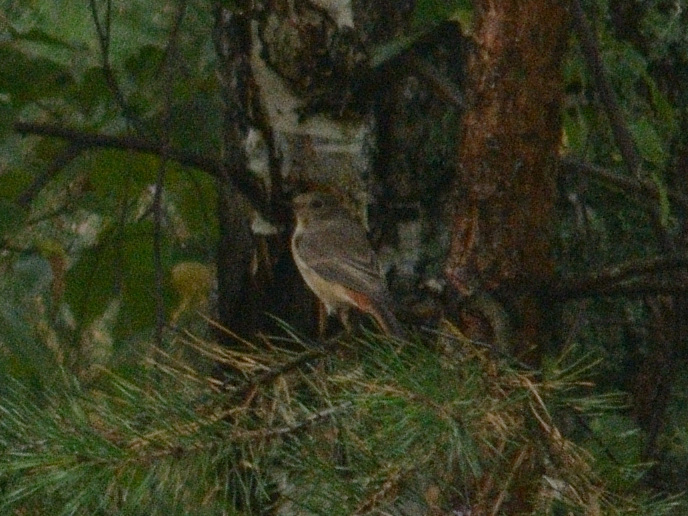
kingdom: Animalia
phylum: Chordata
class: Aves
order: Passeriformes
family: Muscicapidae
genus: Phoenicurus
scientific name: Phoenicurus phoenicurus
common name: Common redstart
